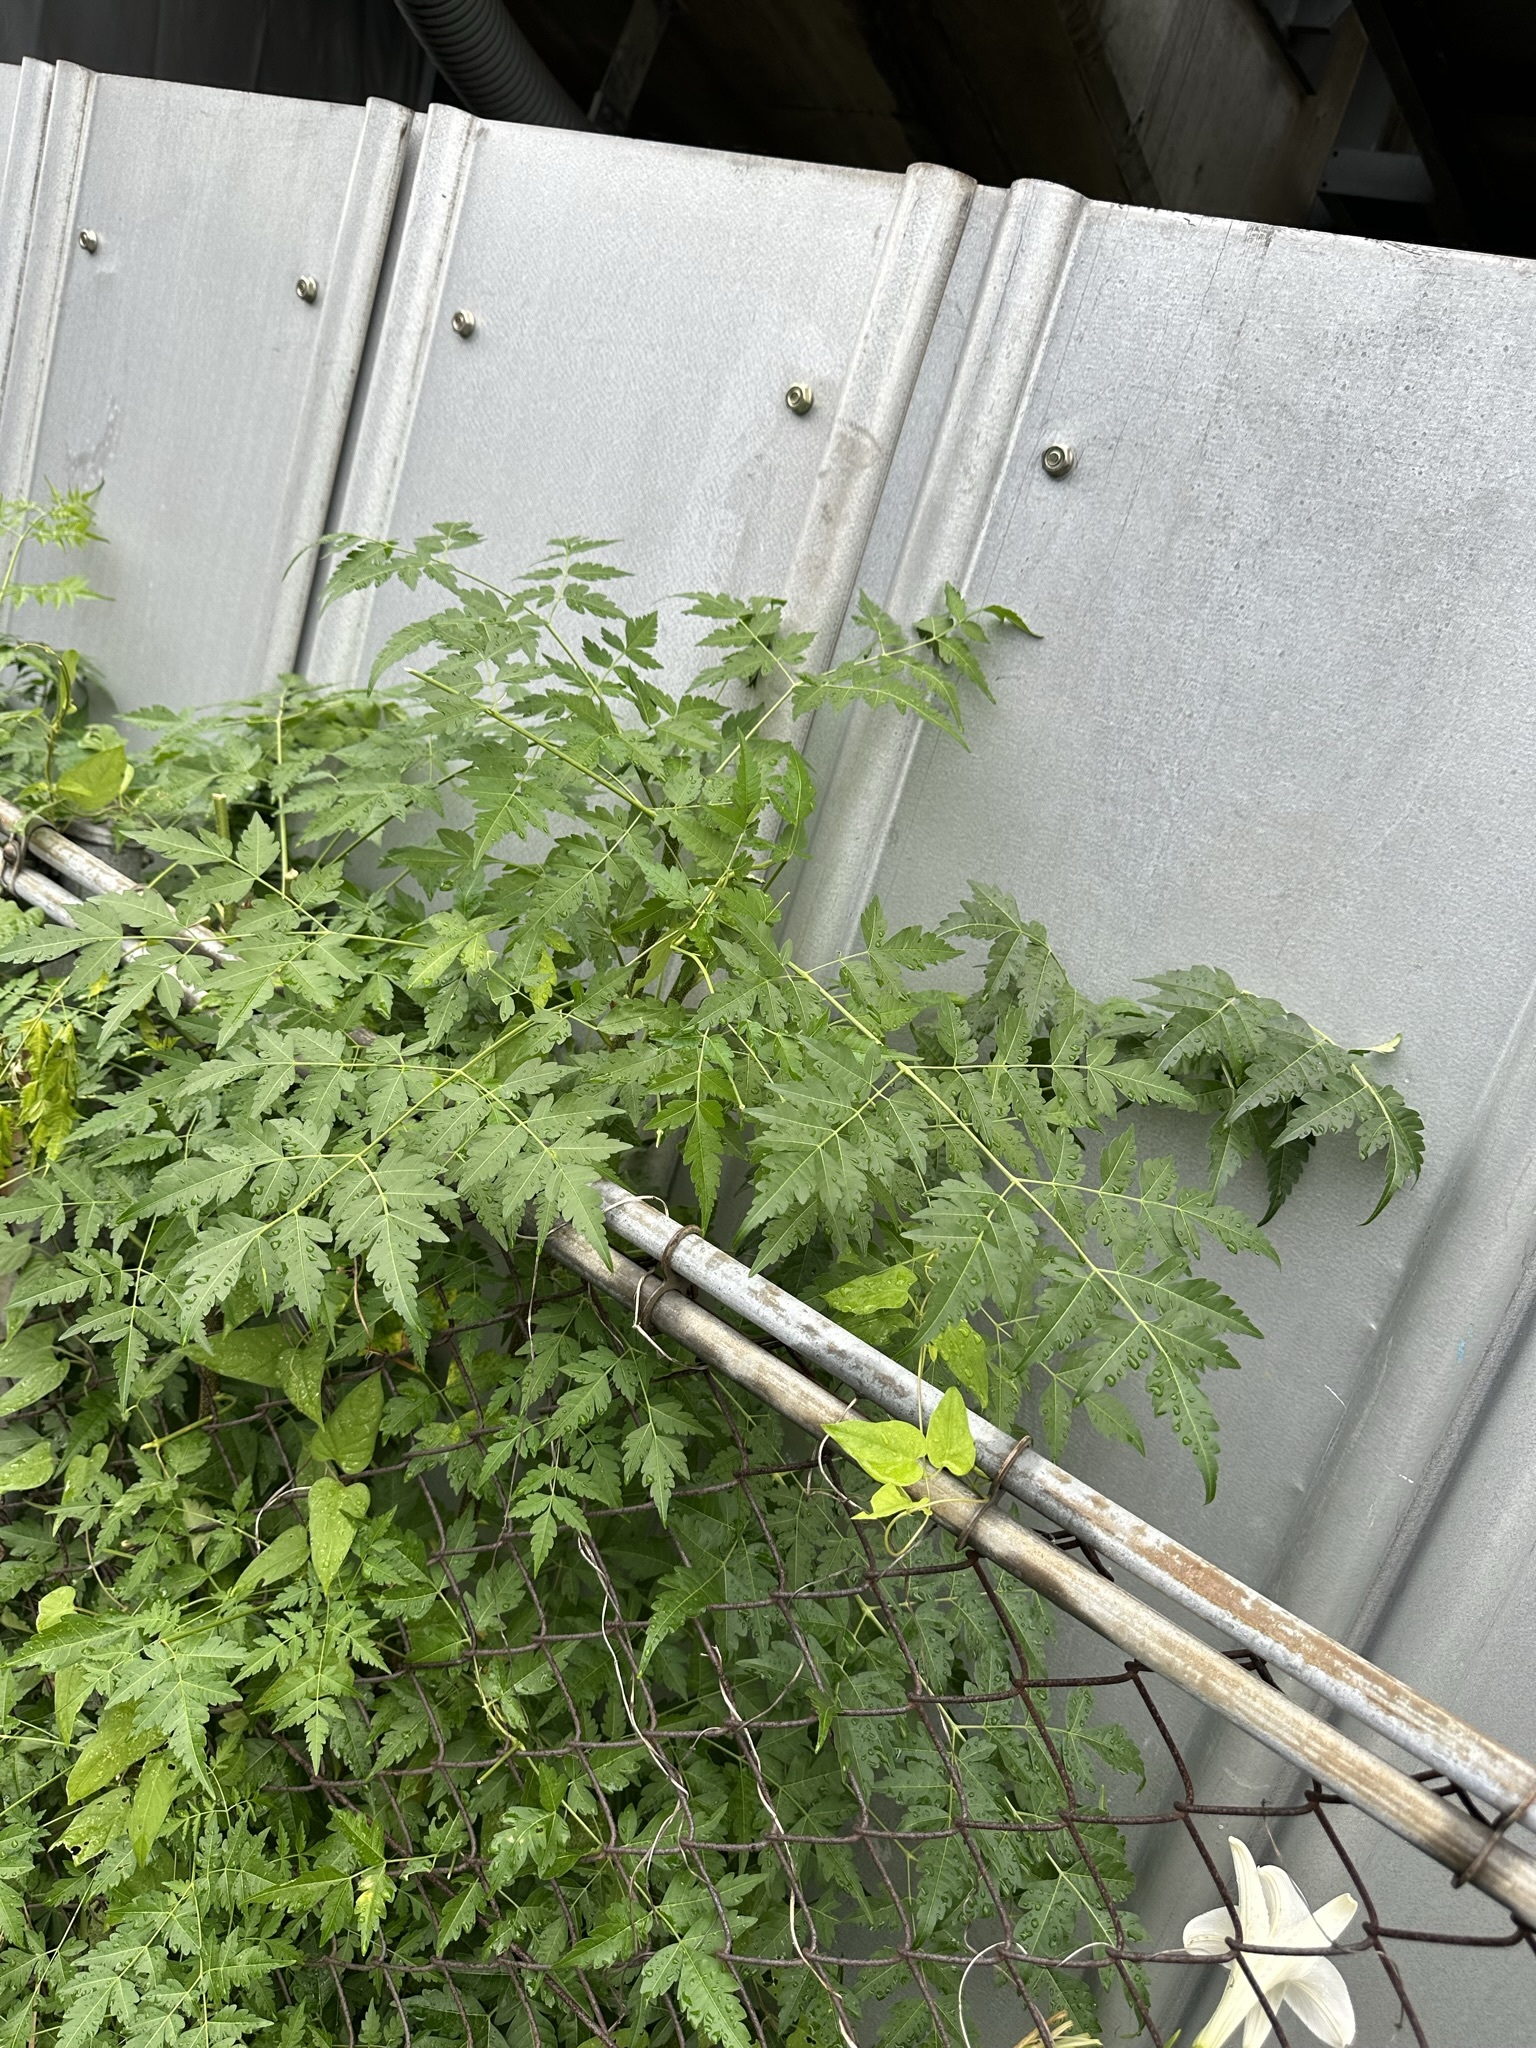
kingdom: Plantae
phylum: Tracheophyta
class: Magnoliopsida
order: Sapindales
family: Meliaceae
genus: Melia
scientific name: Melia azedarach
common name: Chinaberrytree
